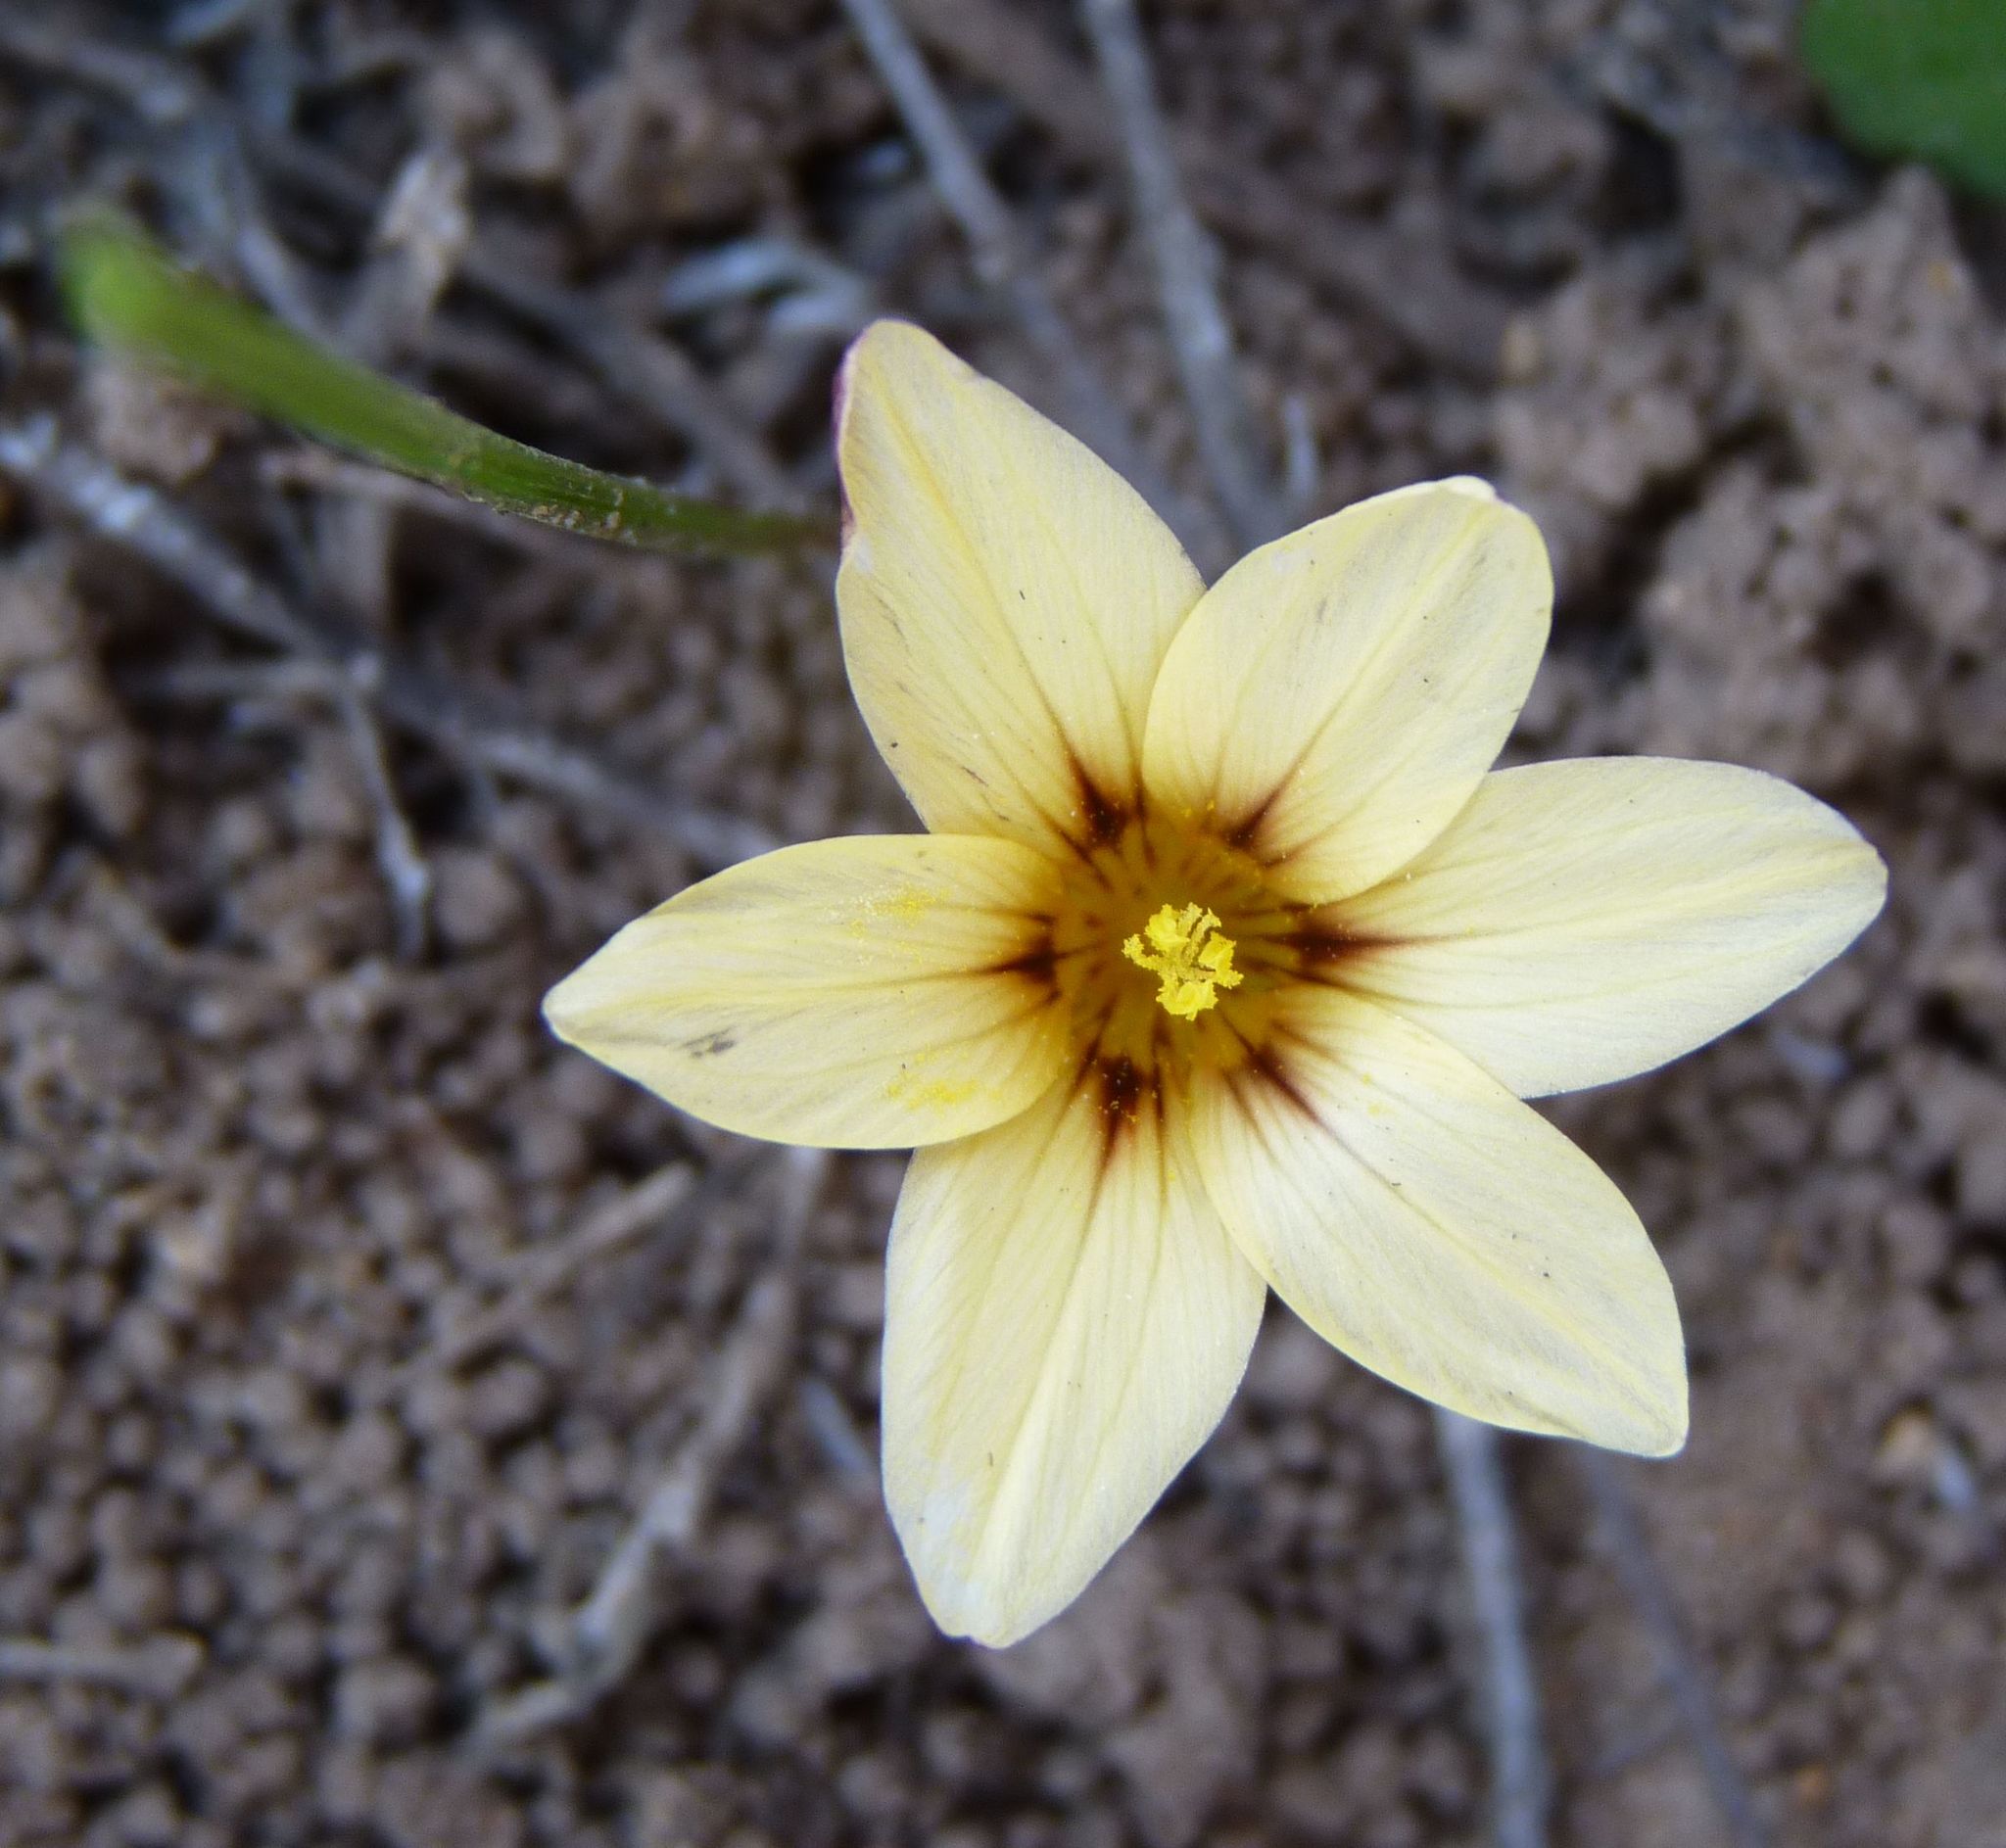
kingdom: Plantae
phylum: Tracheophyta
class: Liliopsida
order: Asparagales
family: Iridaceae
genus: Romulea
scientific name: Romulea sphaerocarpa
